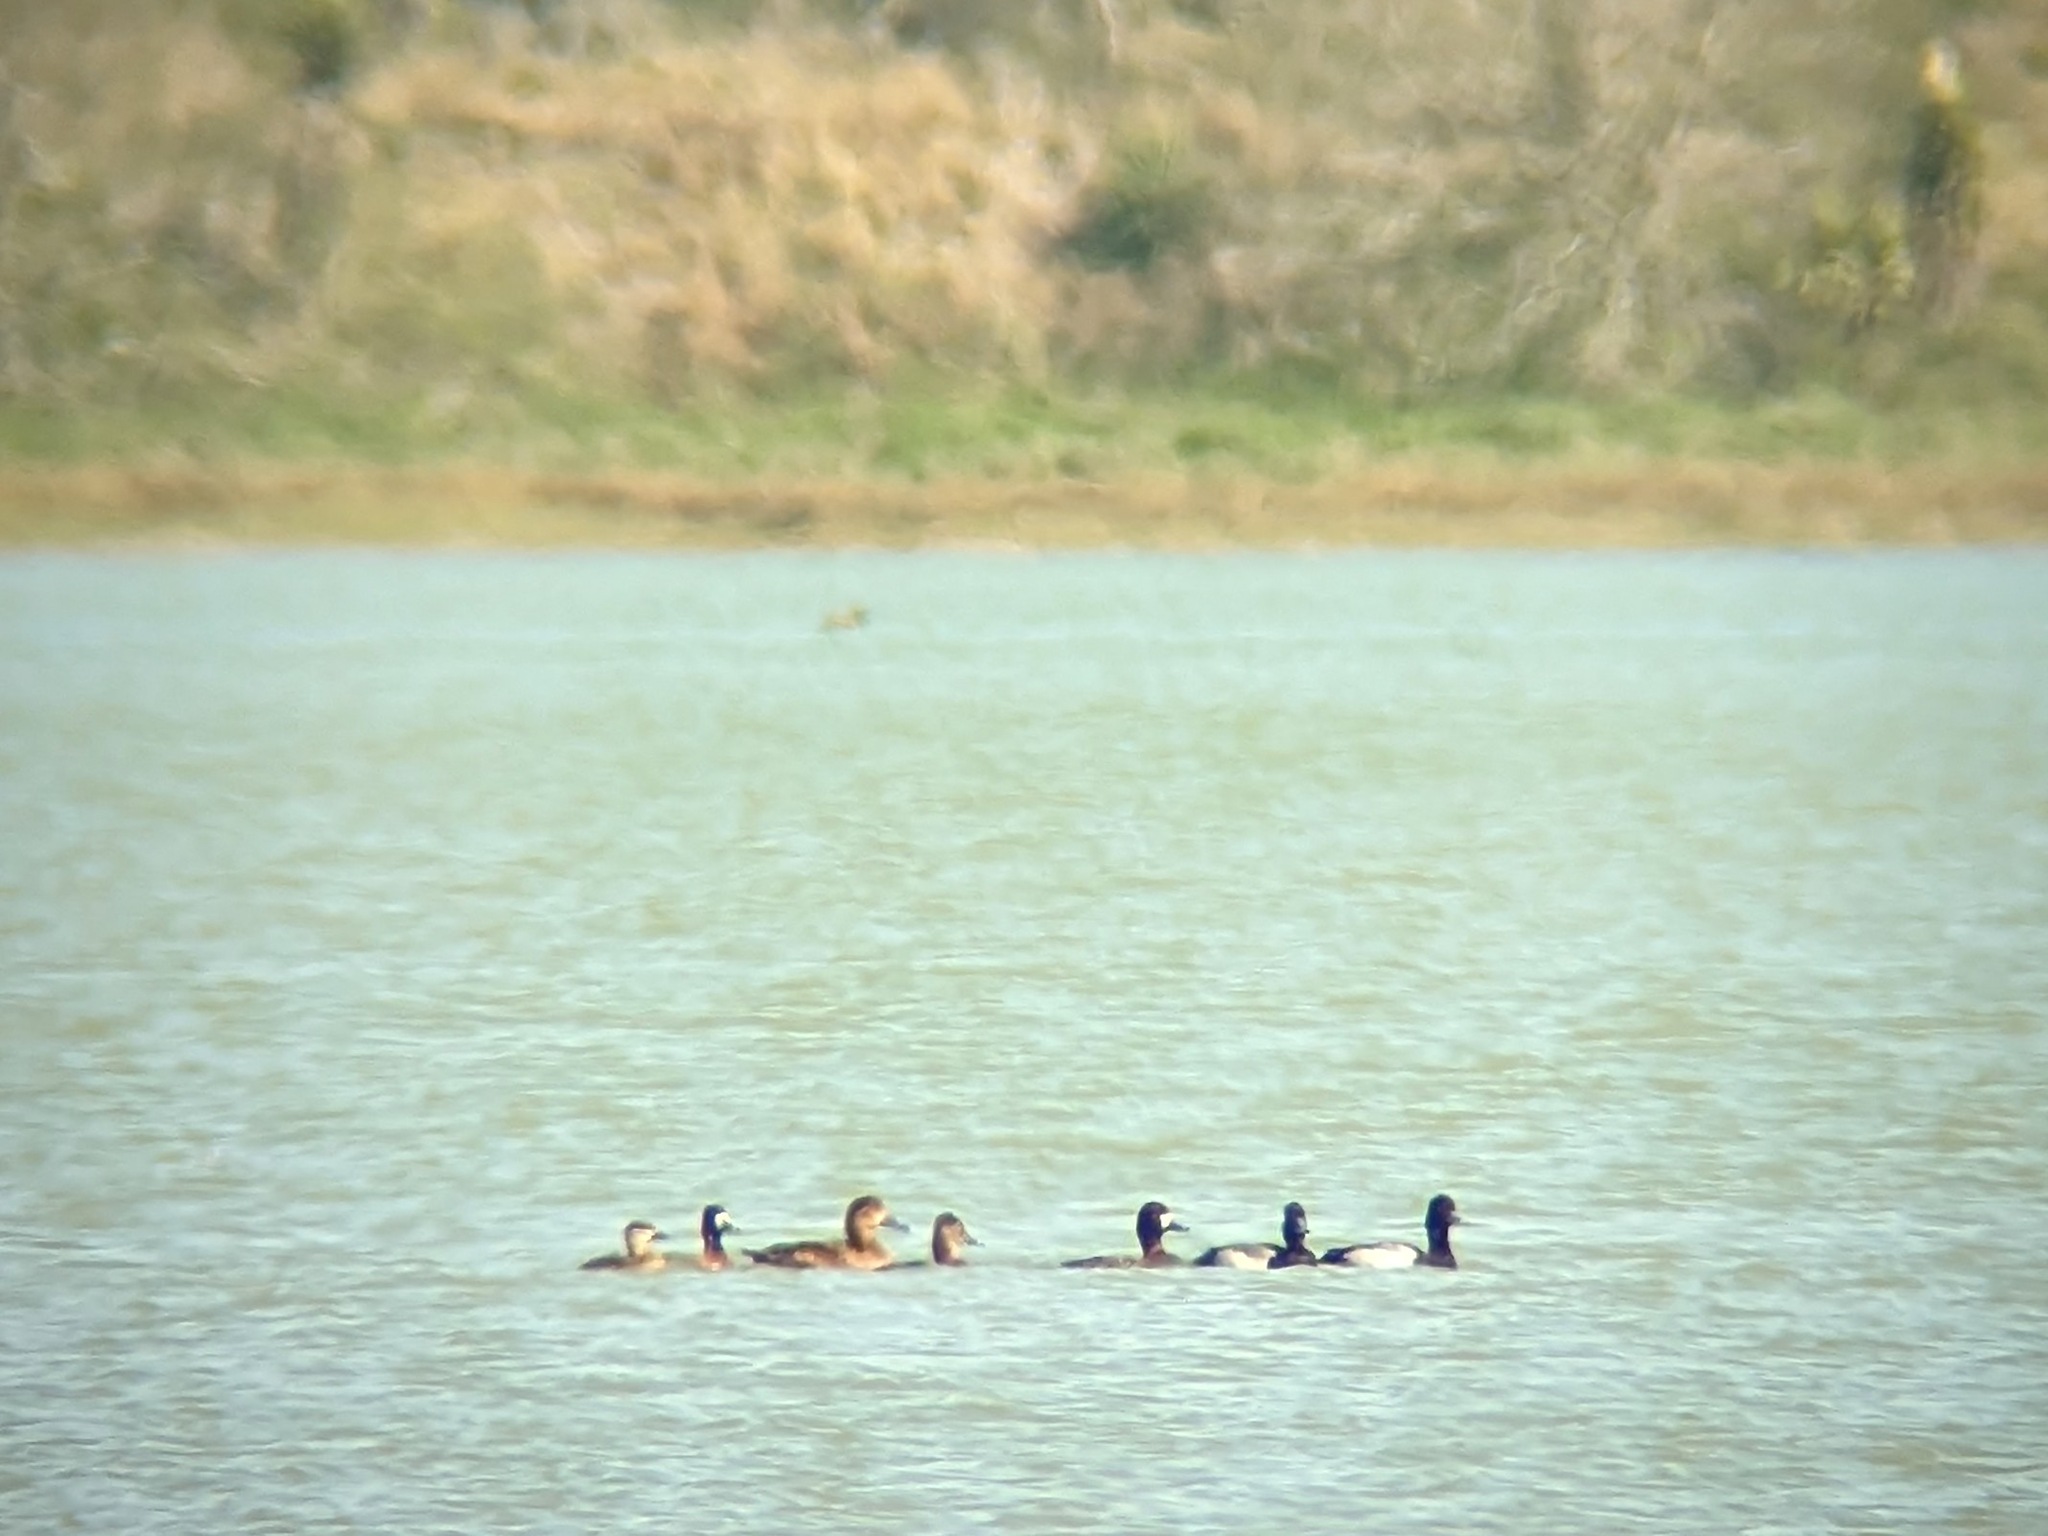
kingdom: Animalia
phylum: Chordata
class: Aves
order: Anseriformes
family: Anatidae
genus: Aythya
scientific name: Aythya affinis
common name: Lesser scaup
